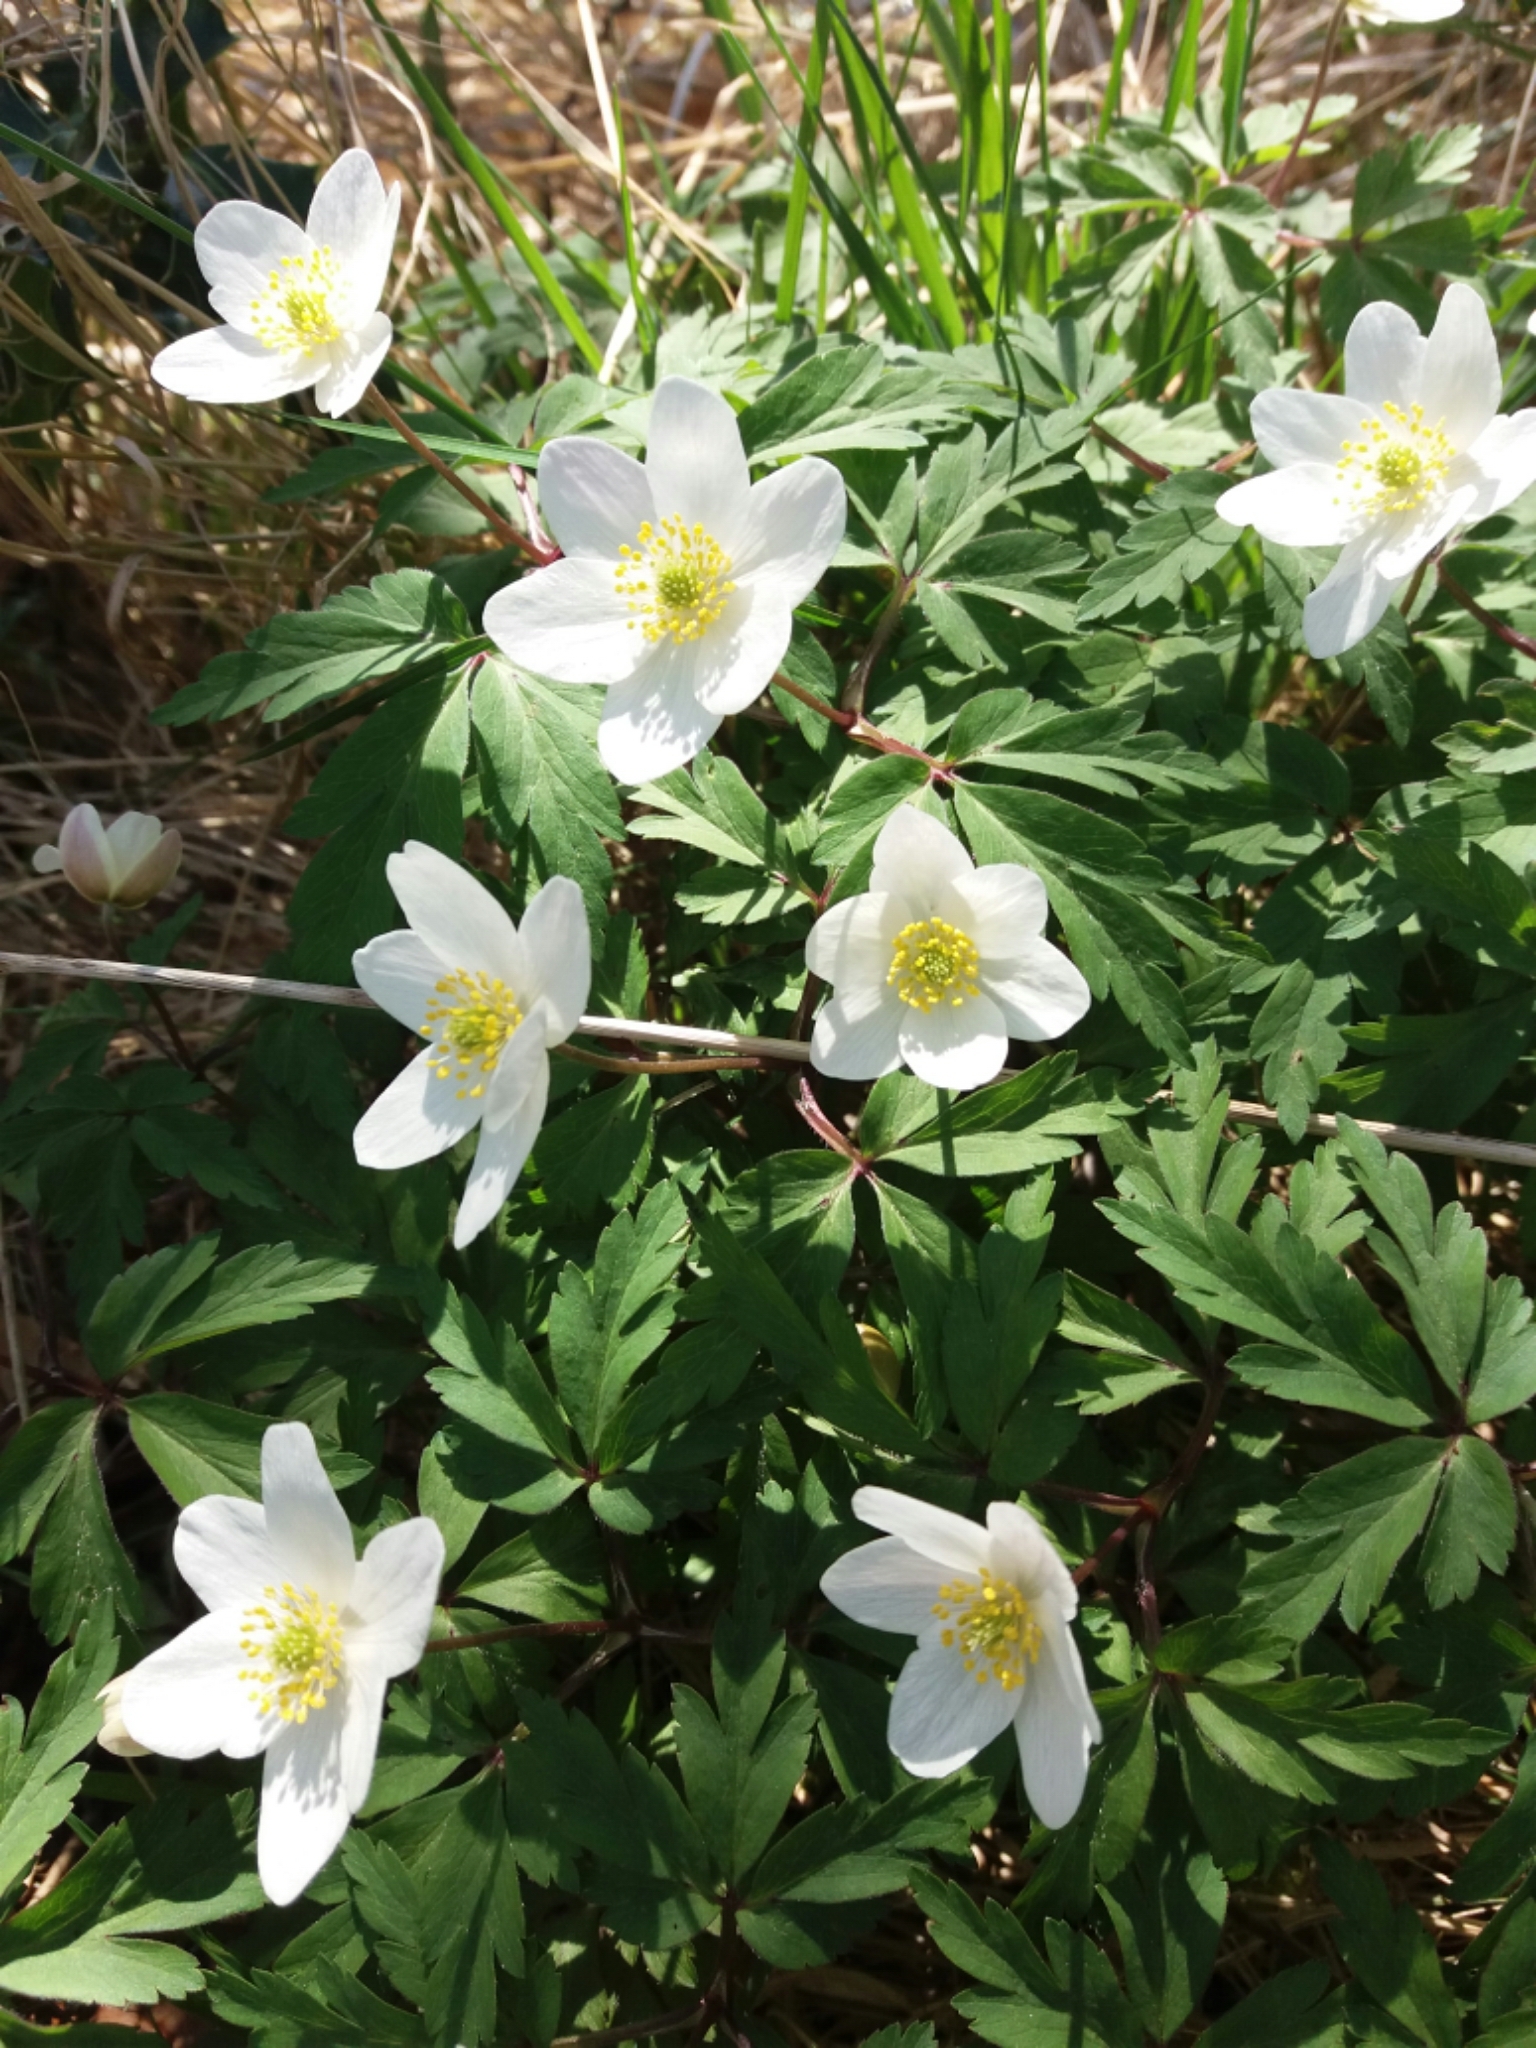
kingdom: Plantae
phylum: Tracheophyta
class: Magnoliopsida
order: Ranunculales
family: Ranunculaceae
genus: Anemone
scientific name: Anemone nemorosa
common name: Wood anemone
